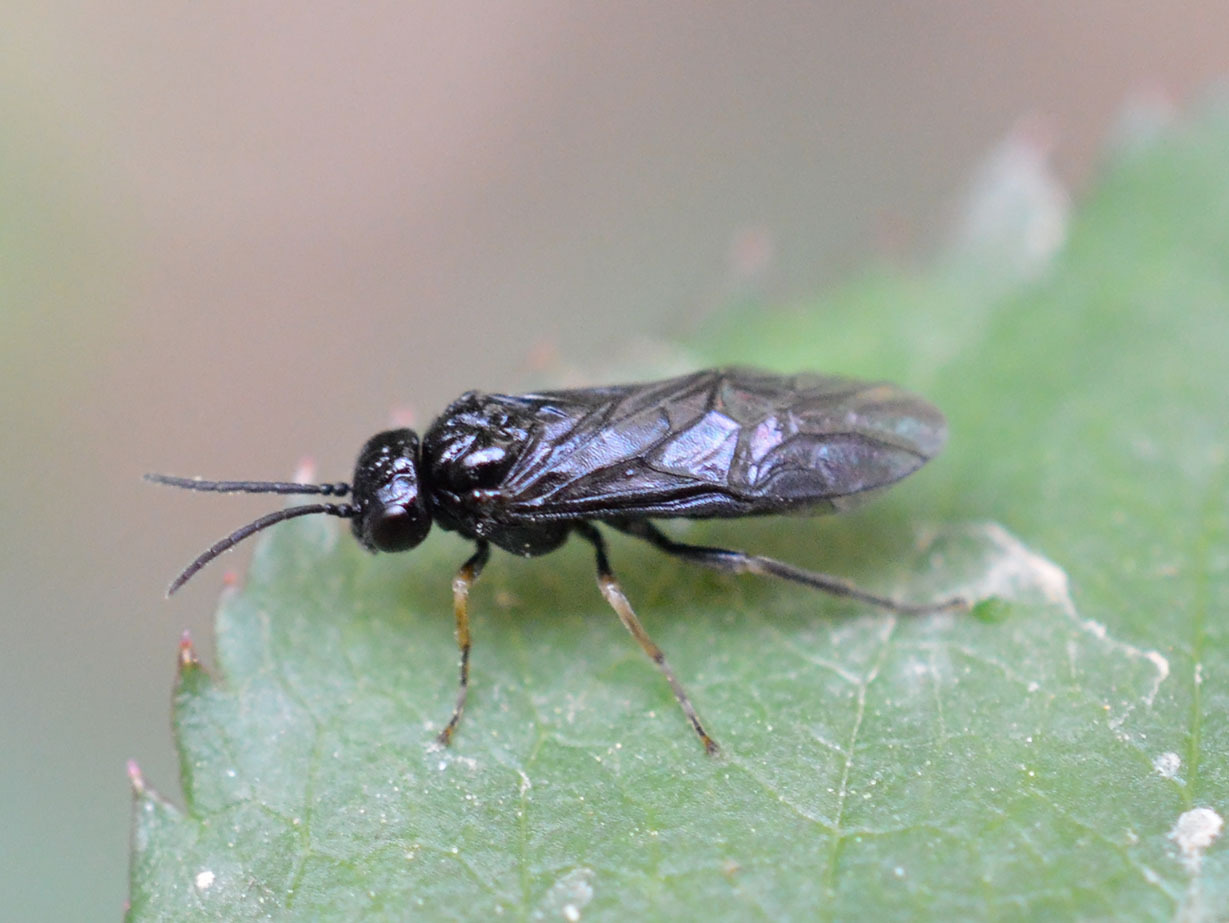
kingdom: Animalia
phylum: Arthropoda
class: Insecta
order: Hymenoptera
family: Tenthredinidae
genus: Blennocampa
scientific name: Blennocampa phyllocolpa
